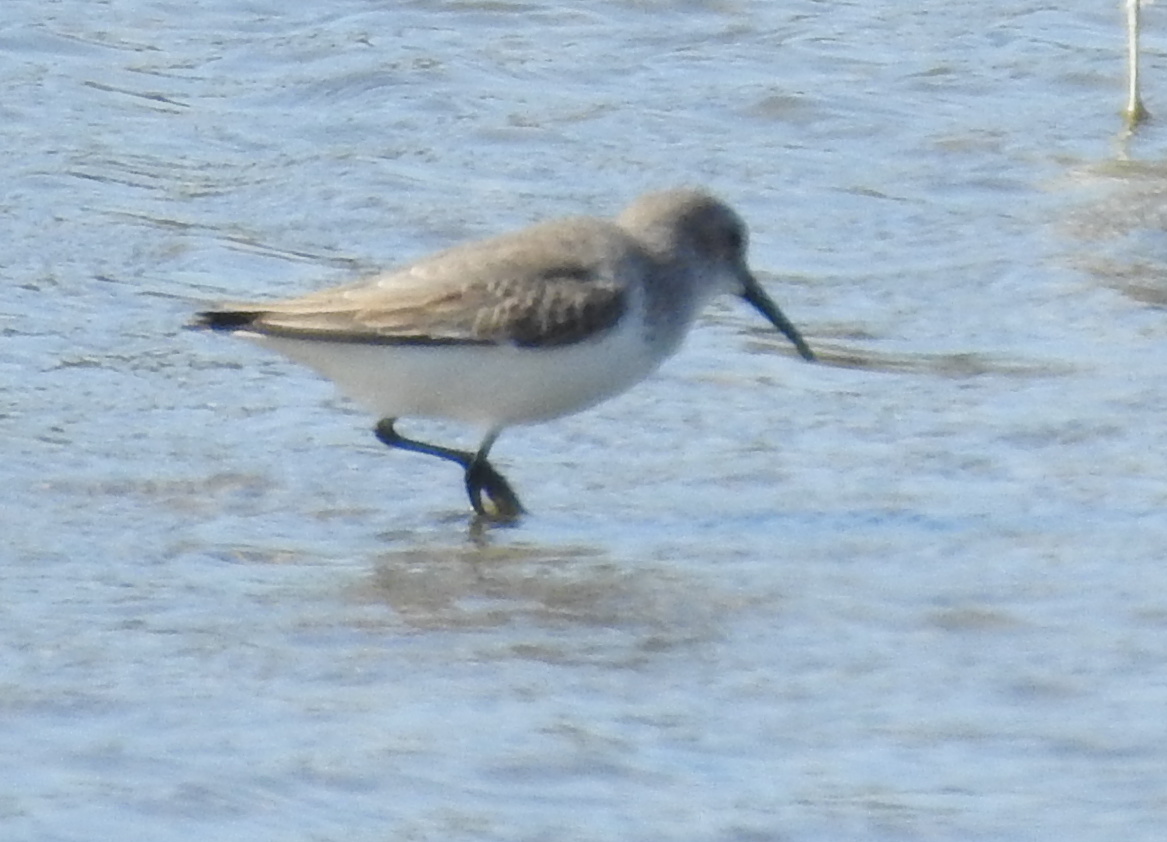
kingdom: Animalia
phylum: Chordata
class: Aves
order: Charadriiformes
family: Scolopacidae
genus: Calidris
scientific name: Calidris alpina
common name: Dunlin
